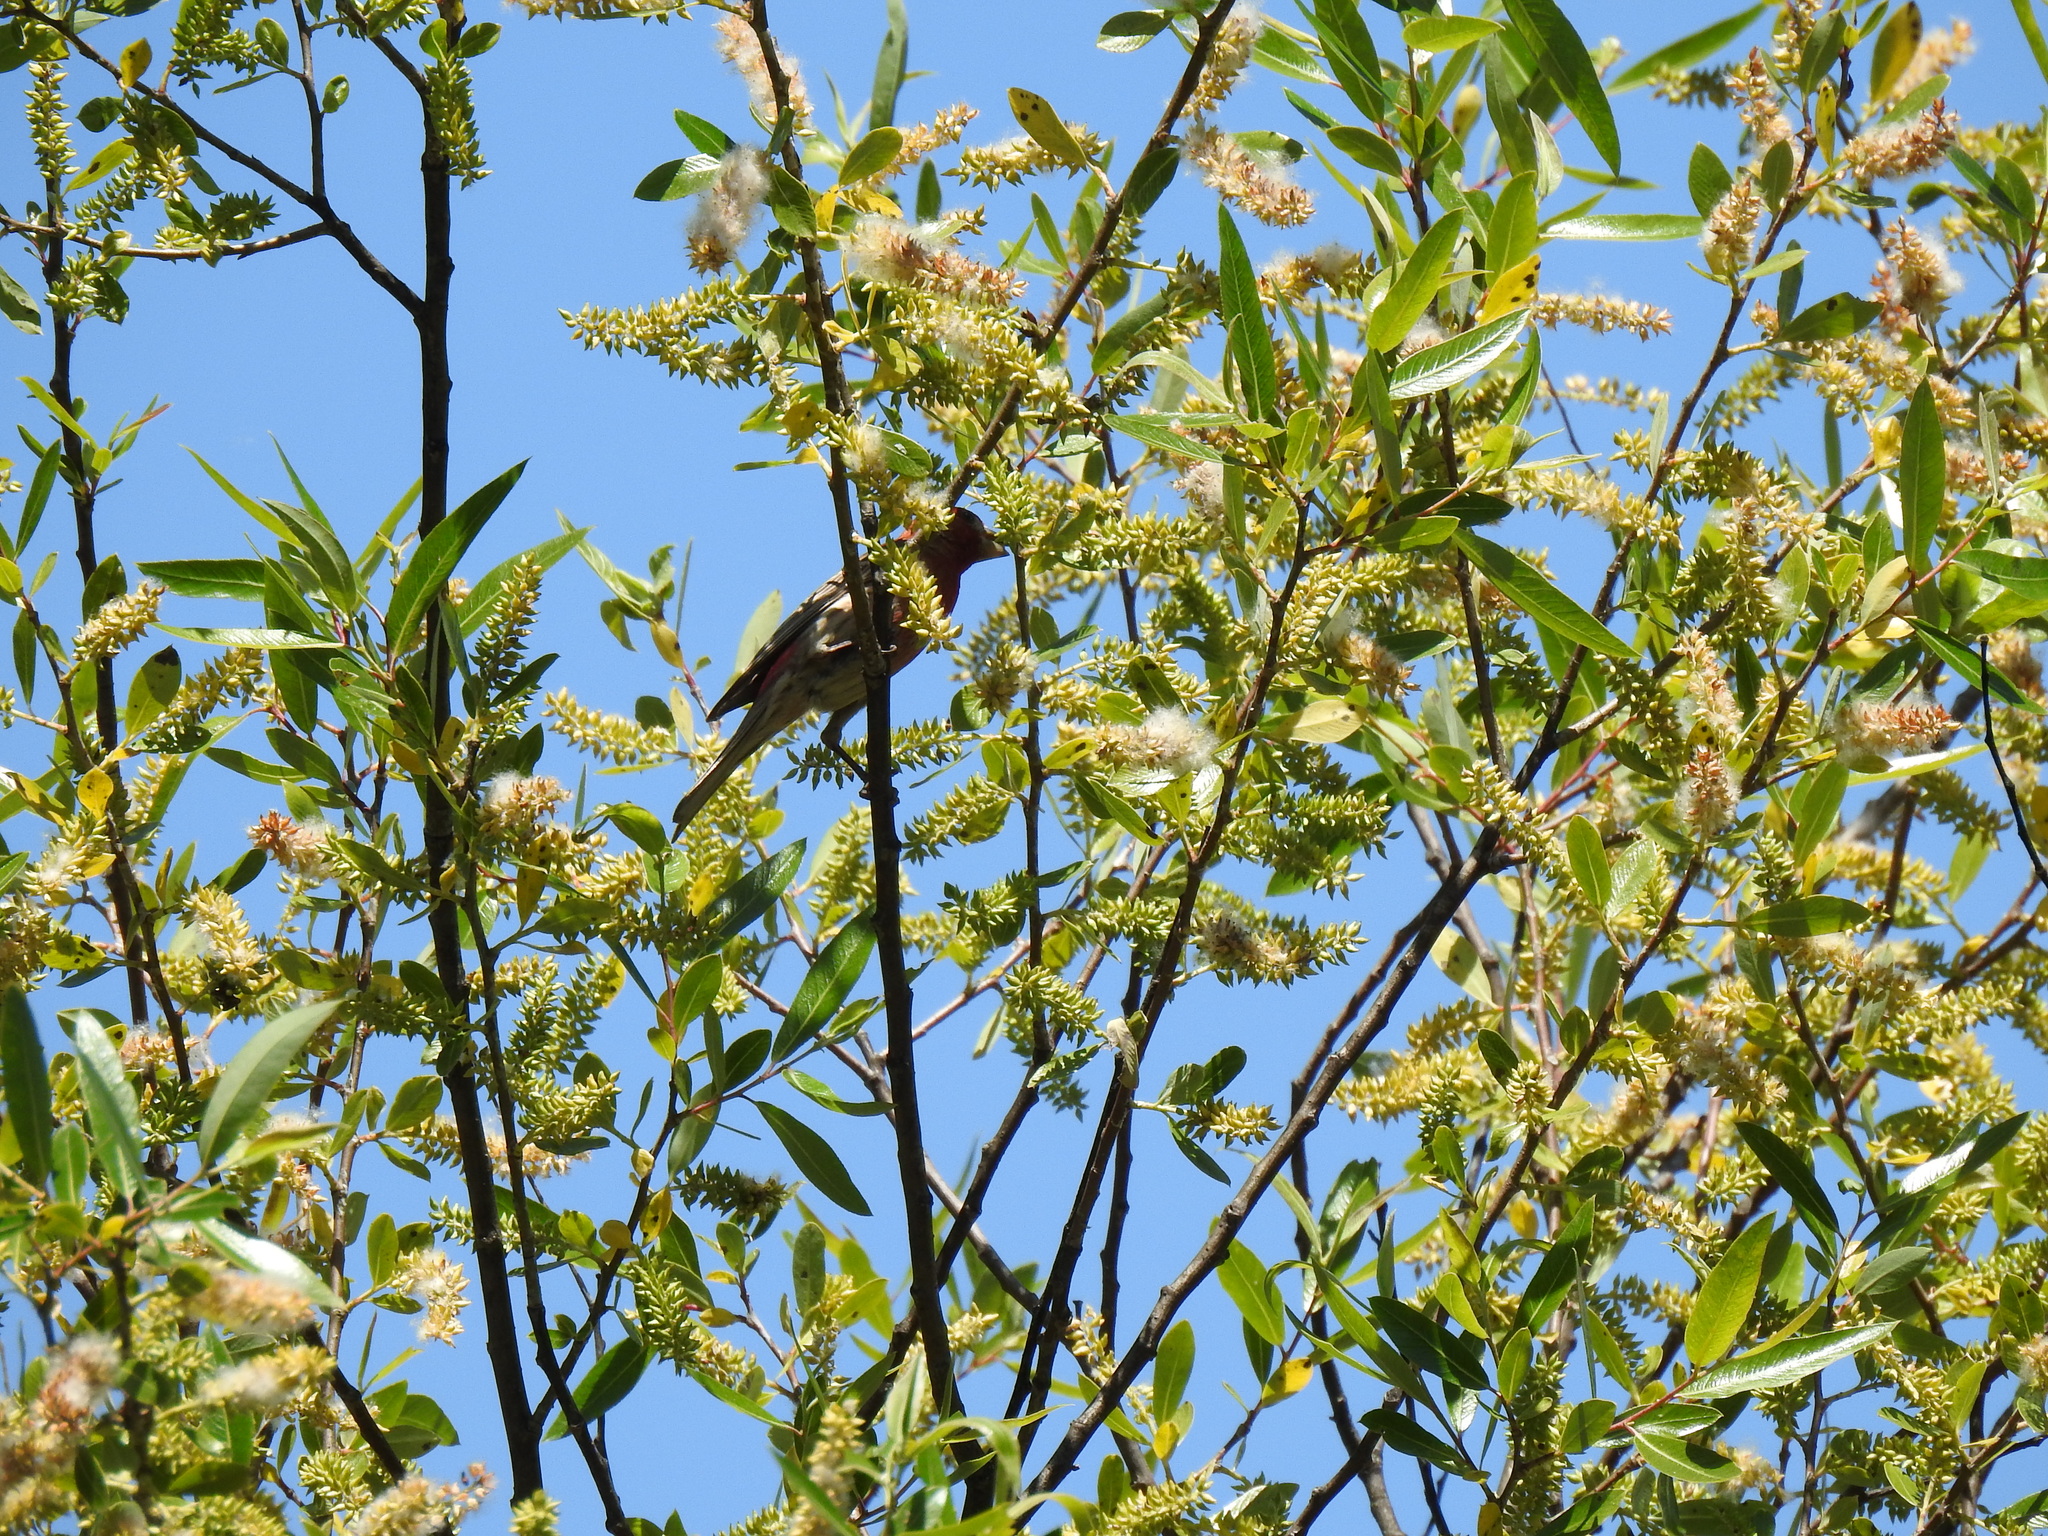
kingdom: Animalia
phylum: Chordata
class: Aves
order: Passeriformes
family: Fringillidae
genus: Haemorhous
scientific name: Haemorhous mexicanus
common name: House finch
